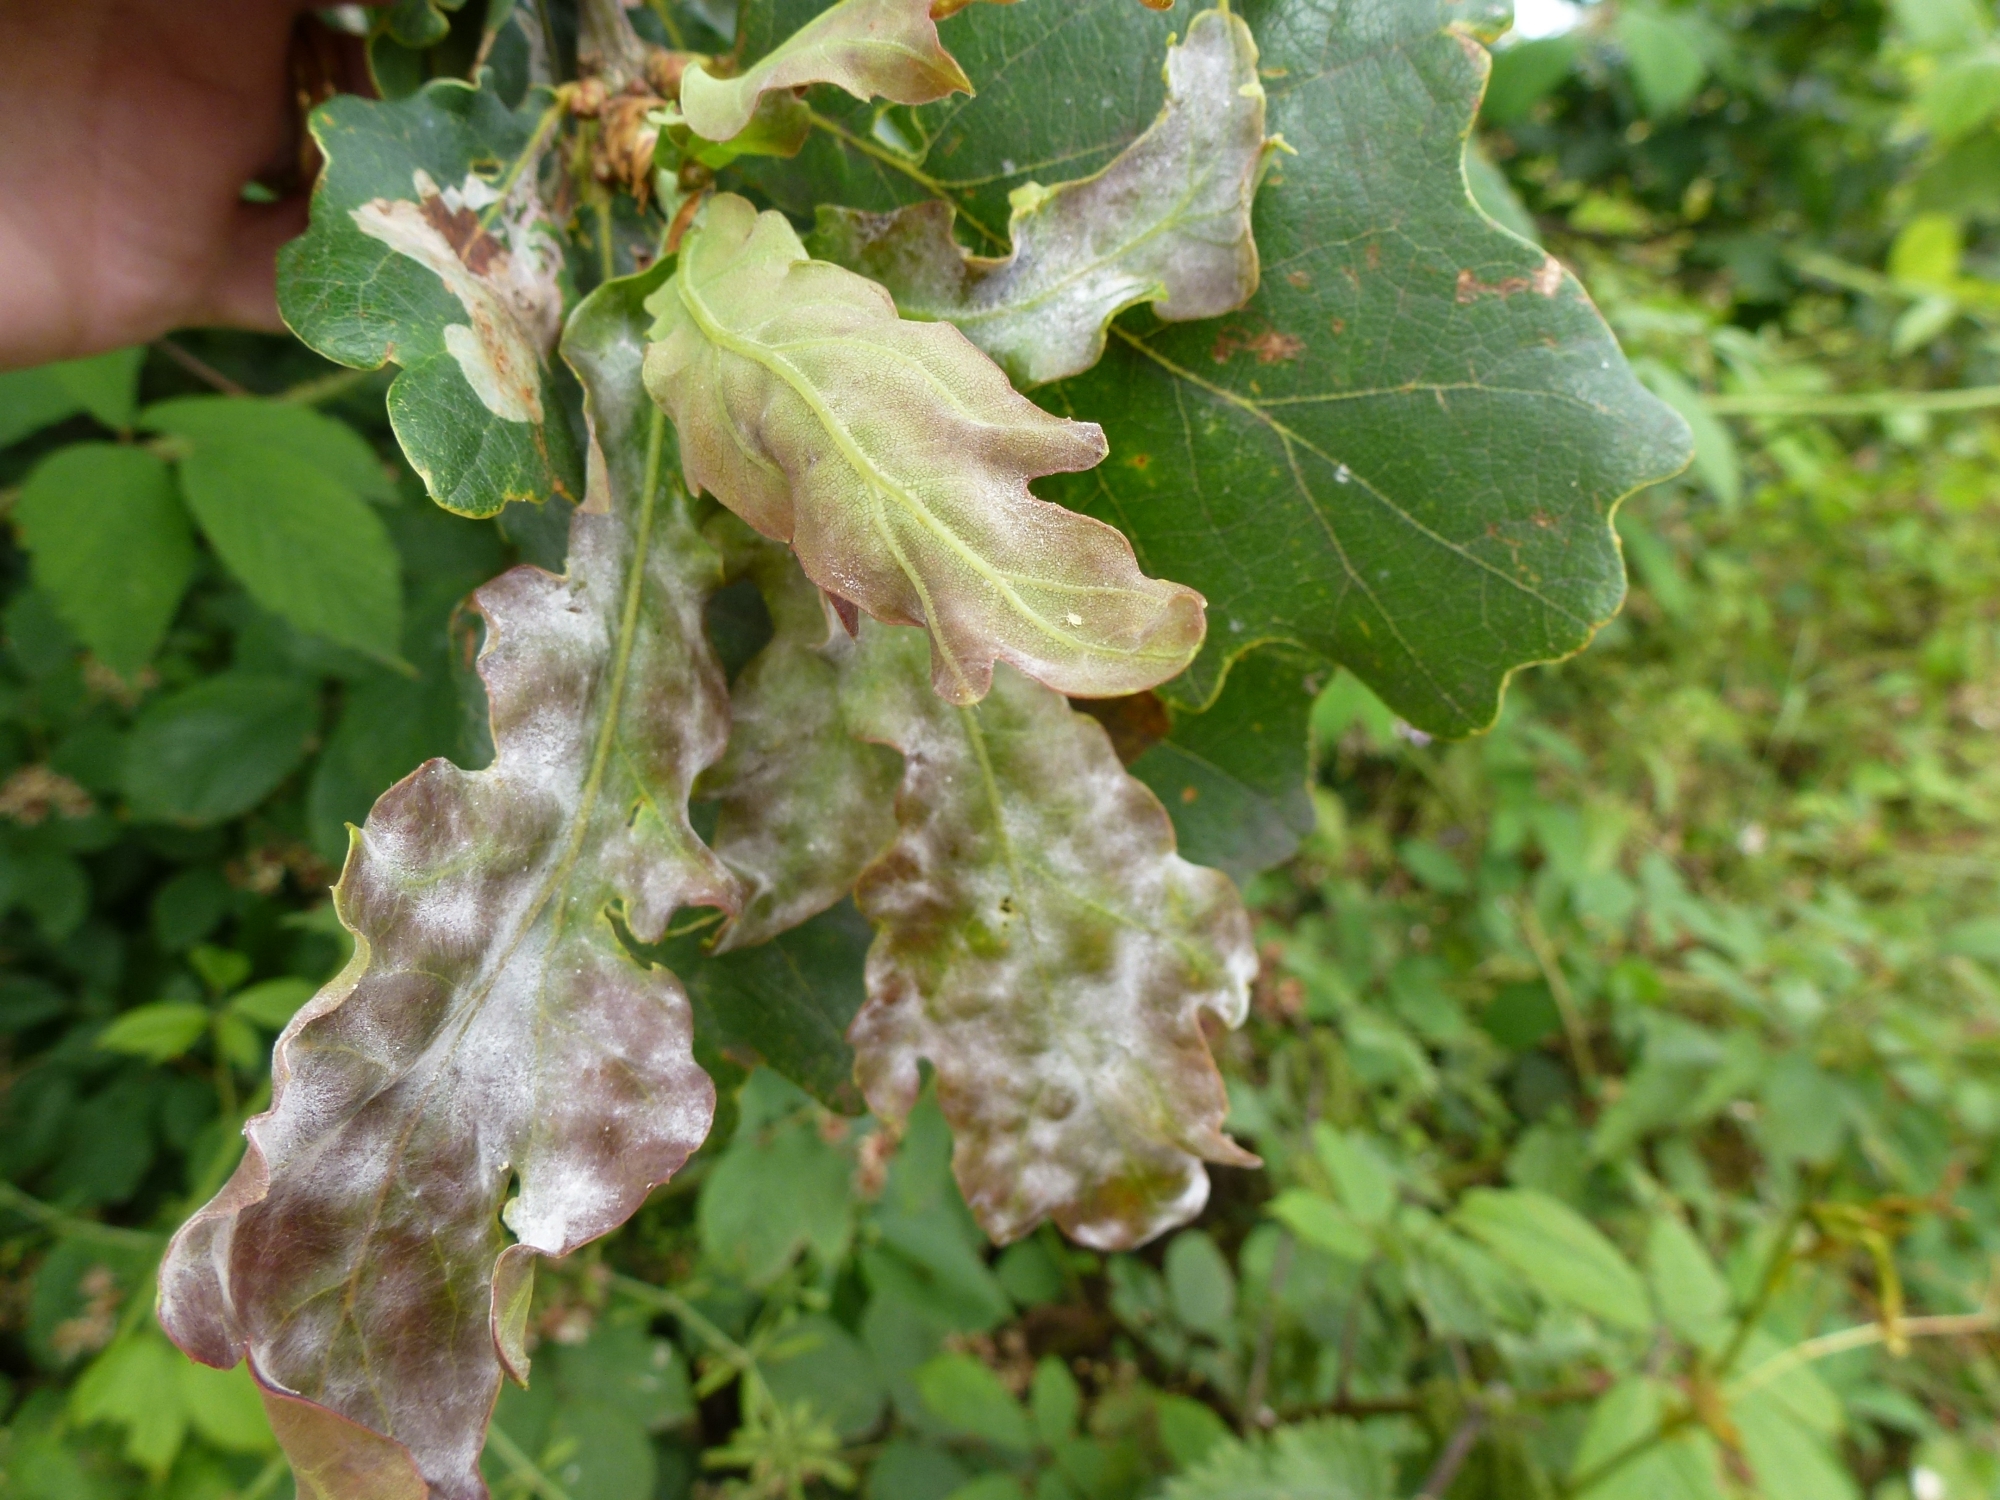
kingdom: Fungi
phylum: Ascomycota
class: Leotiomycetes
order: Helotiales
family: Erysiphaceae
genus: Erysiphe
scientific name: Erysiphe alphitoides
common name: Oak mildew
